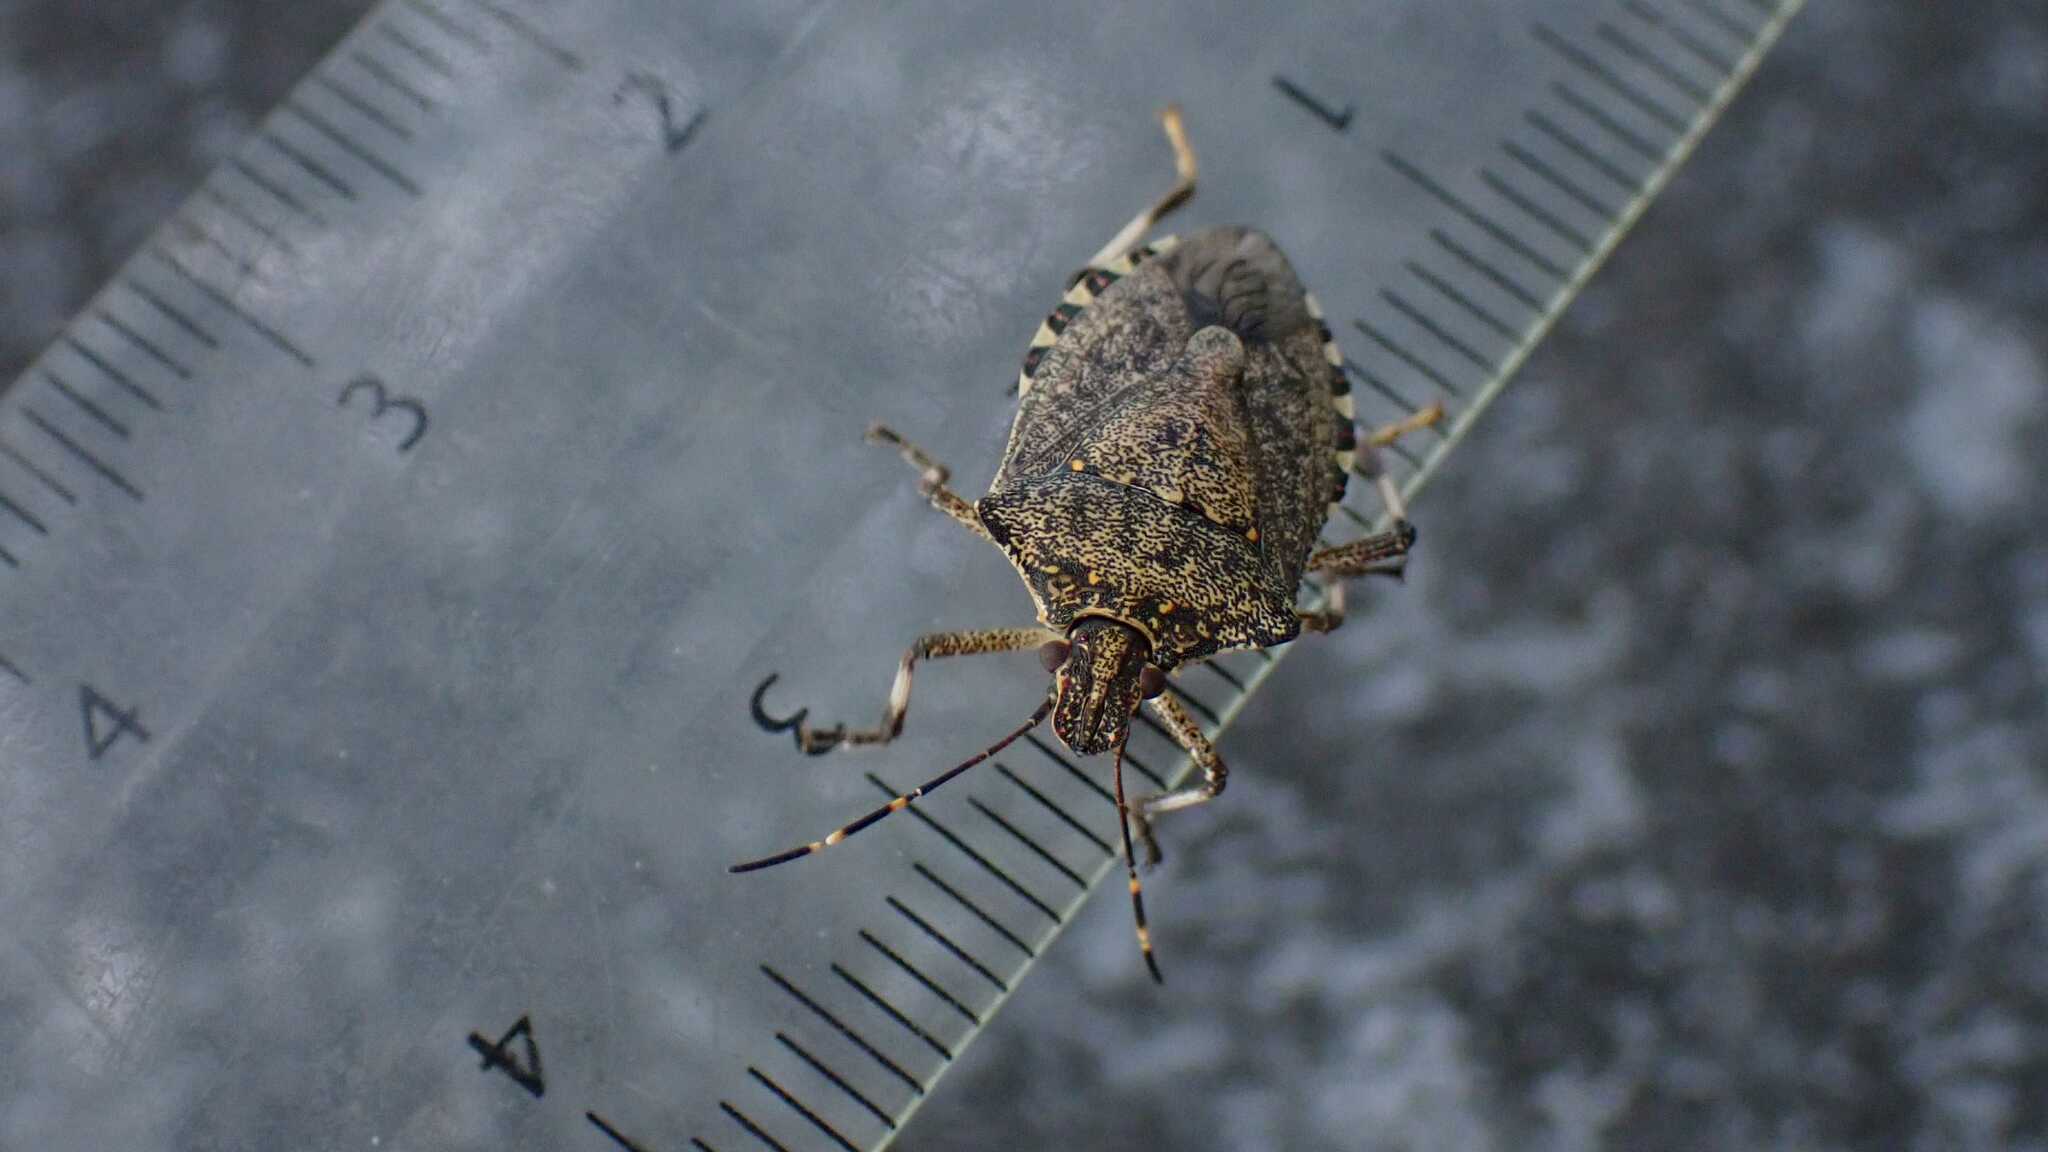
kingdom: Animalia
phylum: Arthropoda
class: Insecta
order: Hemiptera
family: Pentatomidae
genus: Halyomorpha
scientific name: Halyomorpha halys
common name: Brown marmorated stink bug
